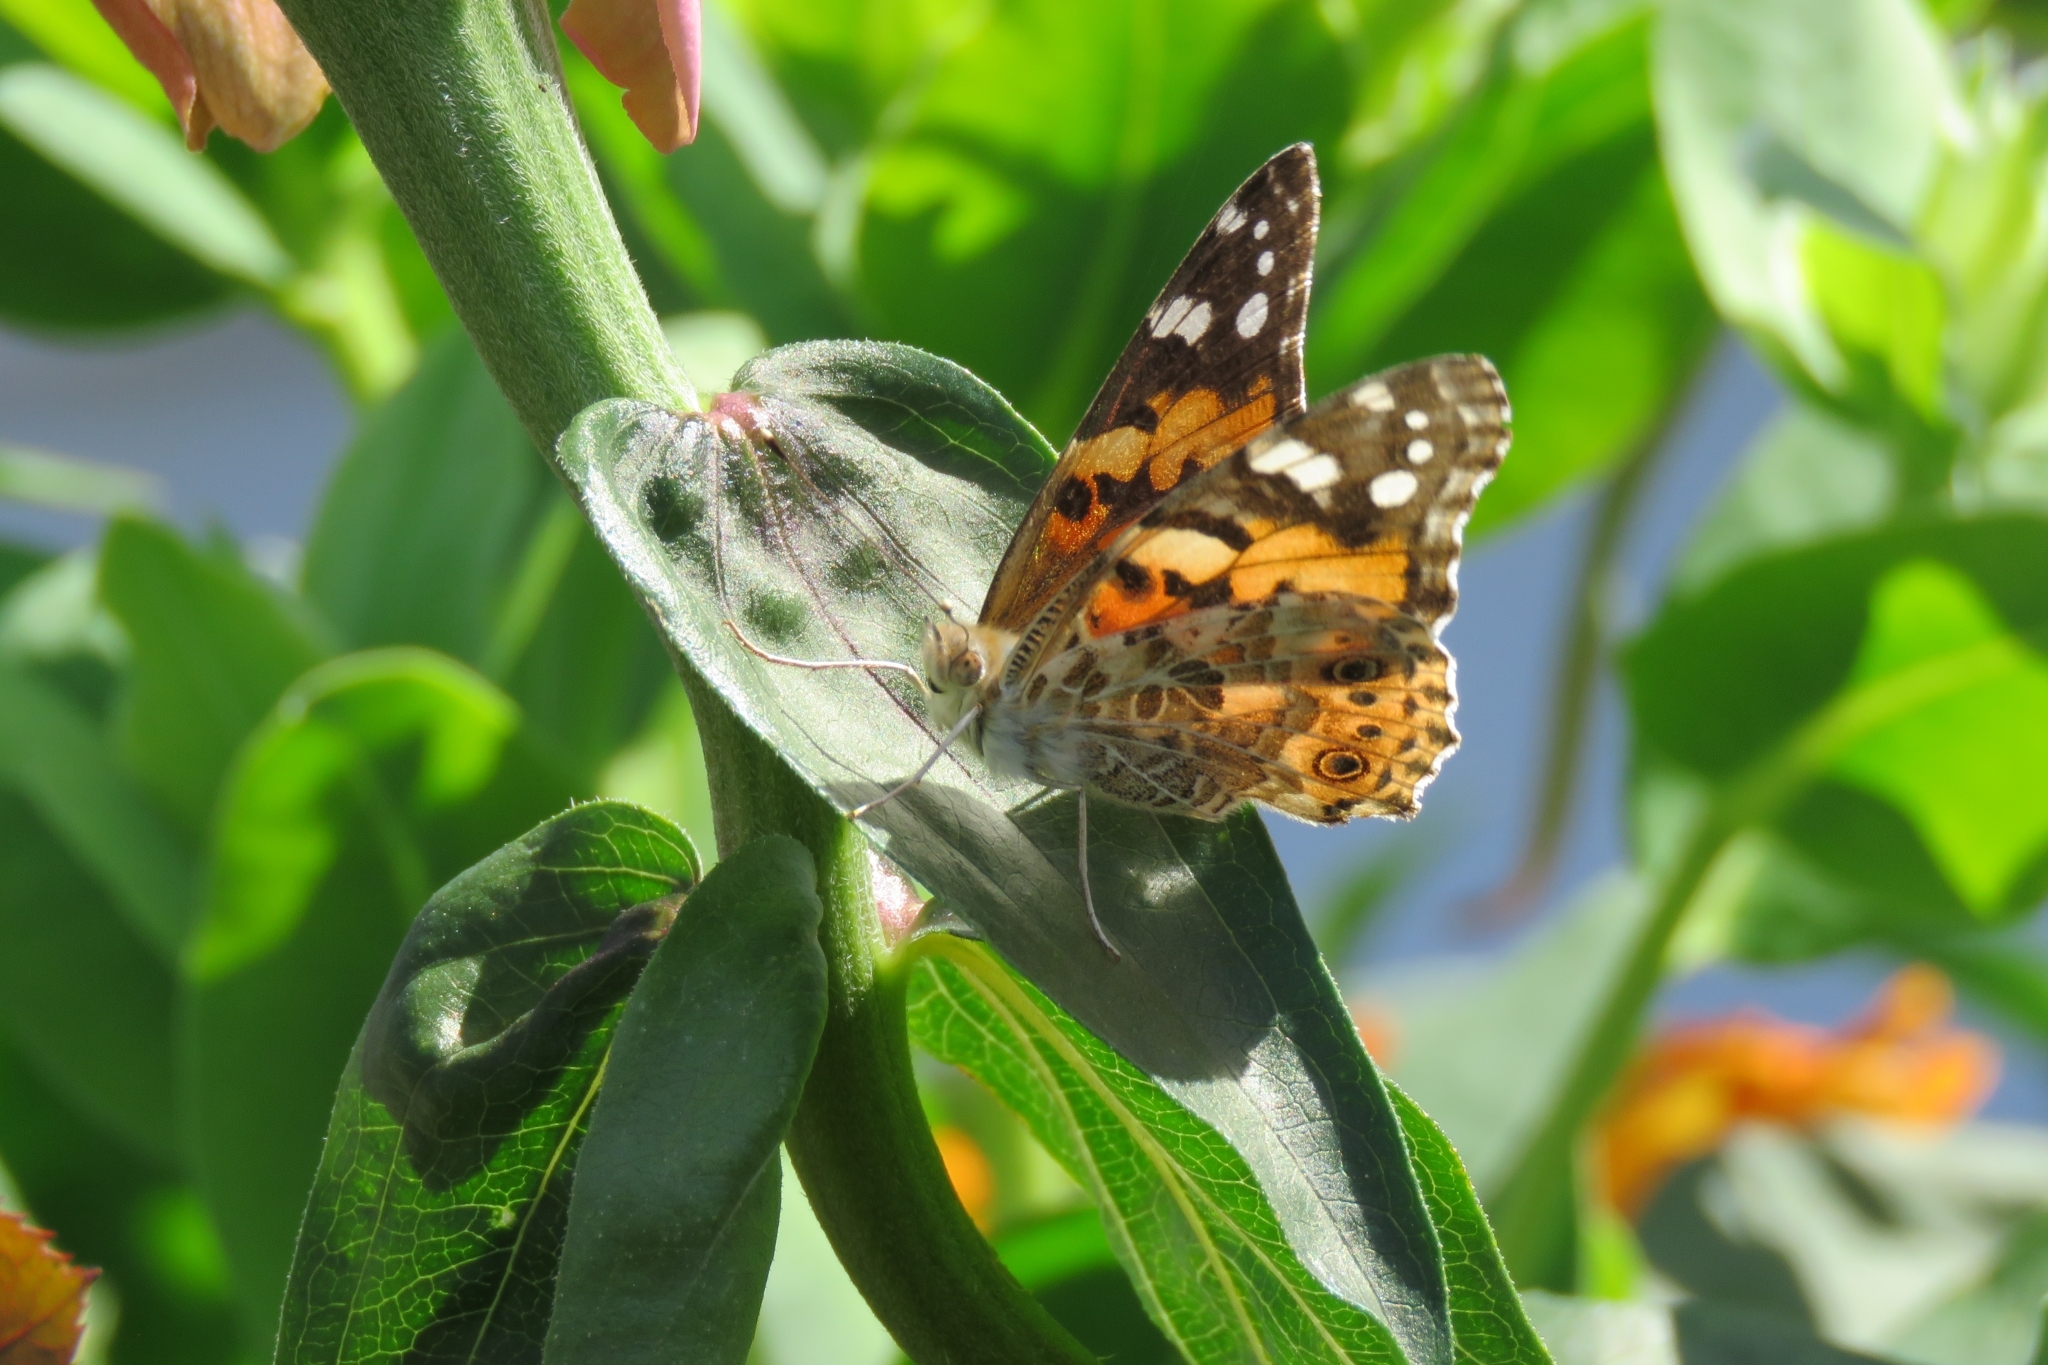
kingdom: Animalia
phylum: Arthropoda
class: Insecta
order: Lepidoptera
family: Nymphalidae
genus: Vanessa
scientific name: Vanessa cardui
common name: Painted lady
